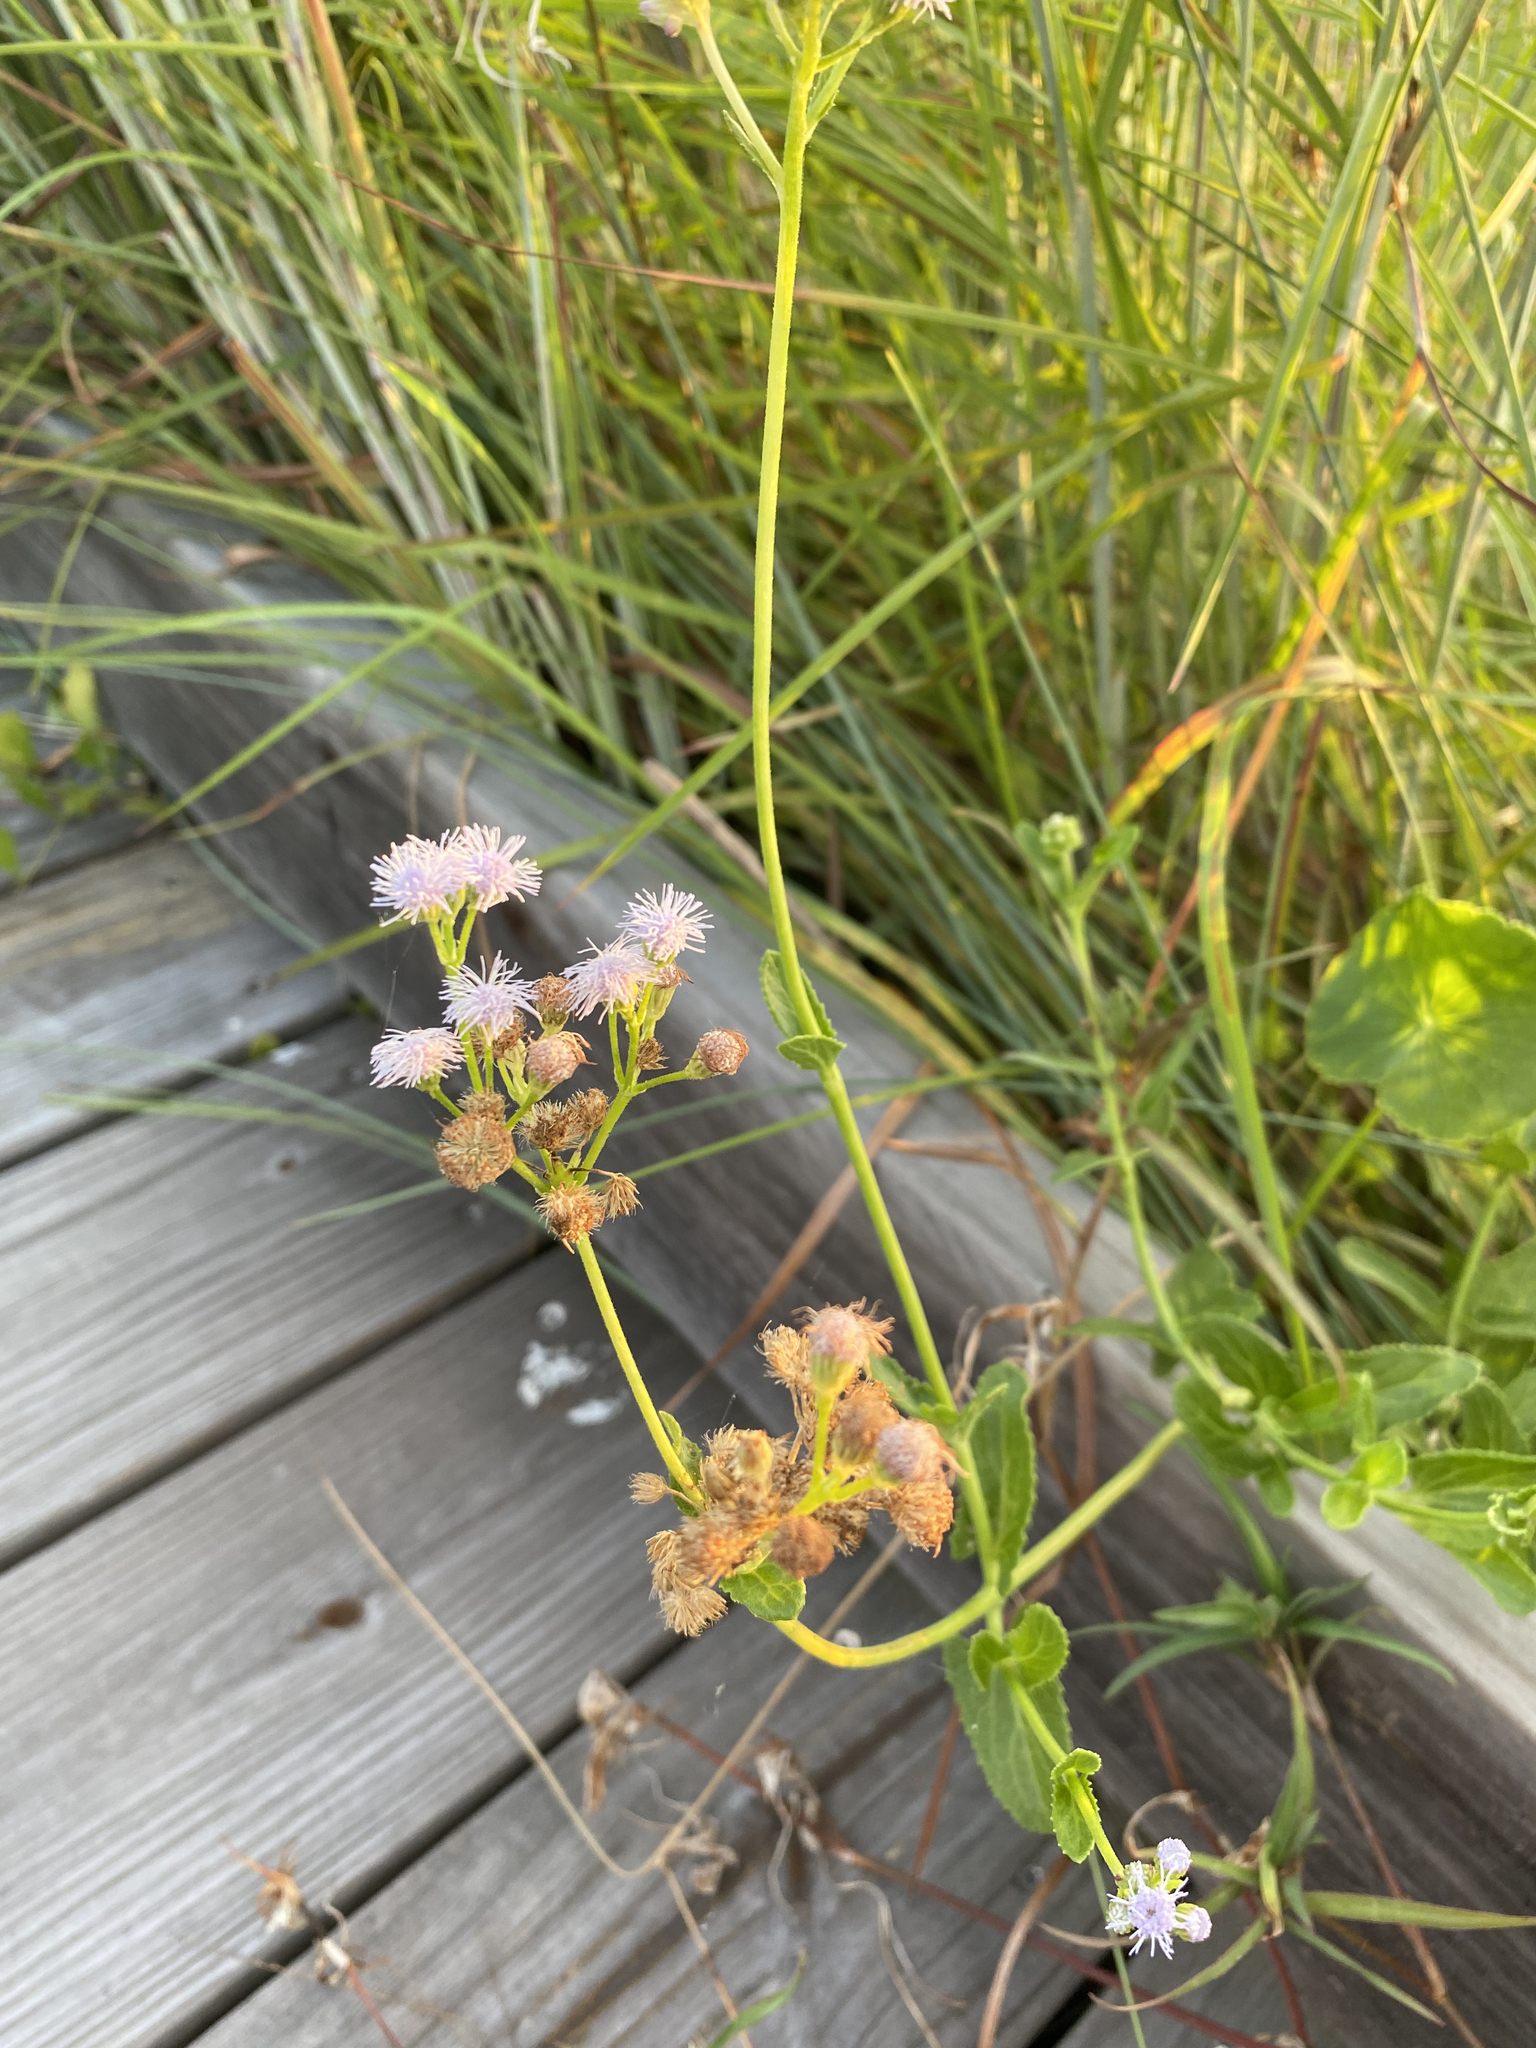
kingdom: Plantae
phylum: Tracheophyta
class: Magnoliopsida
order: Asterales
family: Asteraceae
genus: Conoclinium
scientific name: Conoclinium betonicifolium
